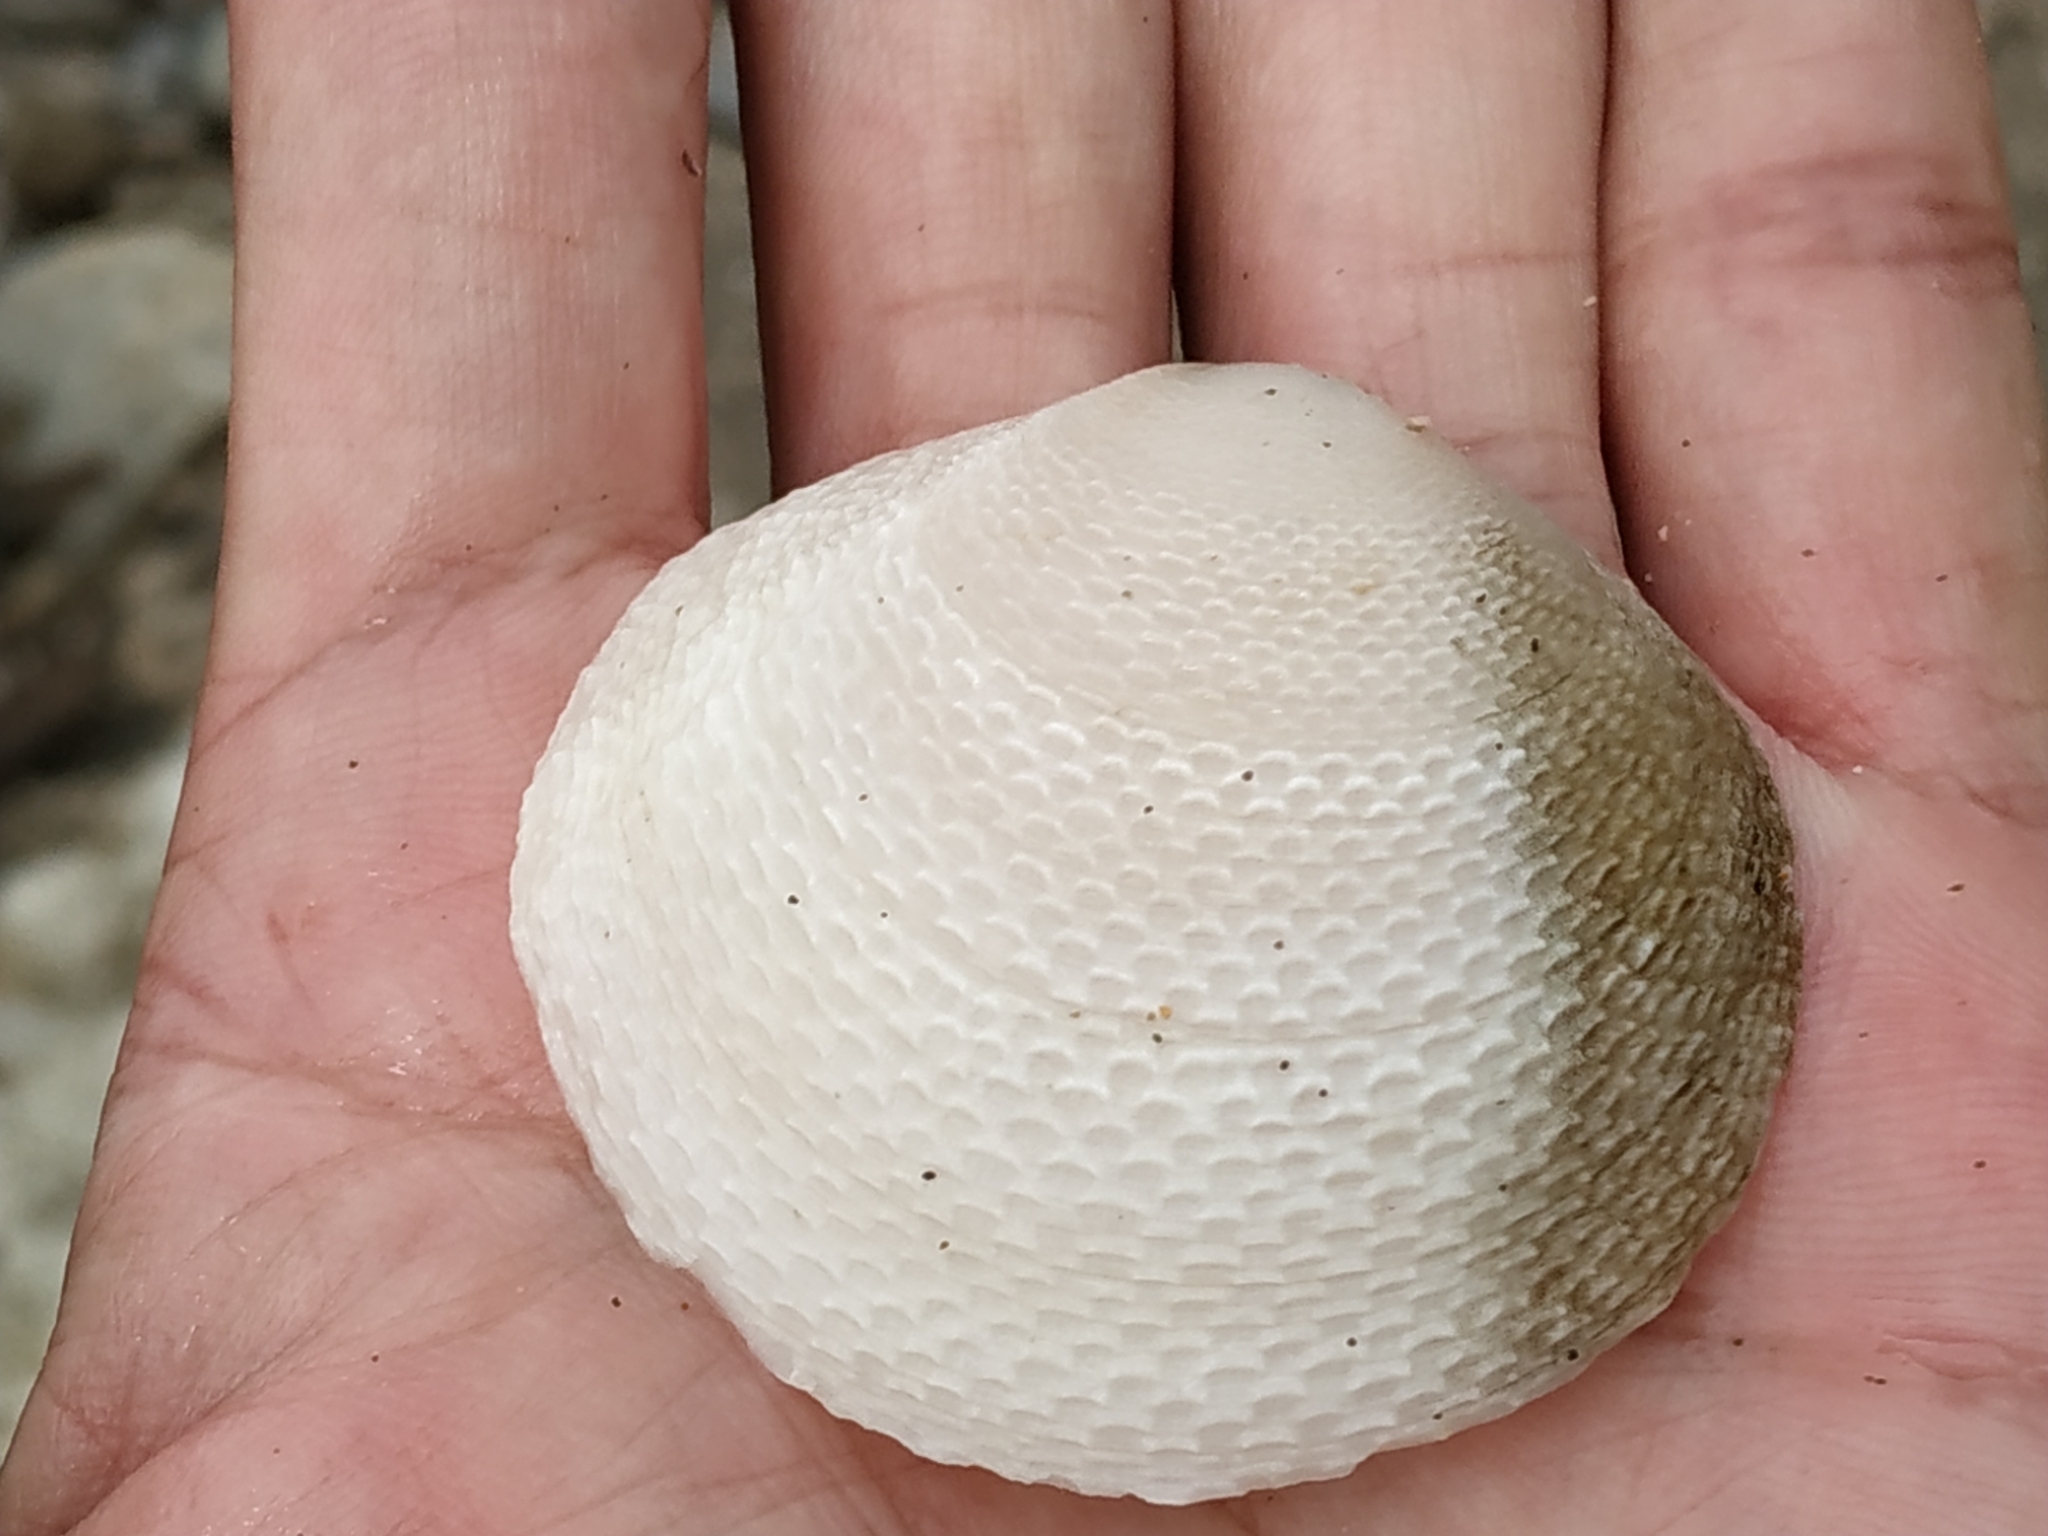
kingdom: Animalia
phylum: Mollusca
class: Bivalvia
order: Cardiida
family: Tellinidae
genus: Scutarcopagia
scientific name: Scutarcopagia scobinata
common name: Rasp tellin
